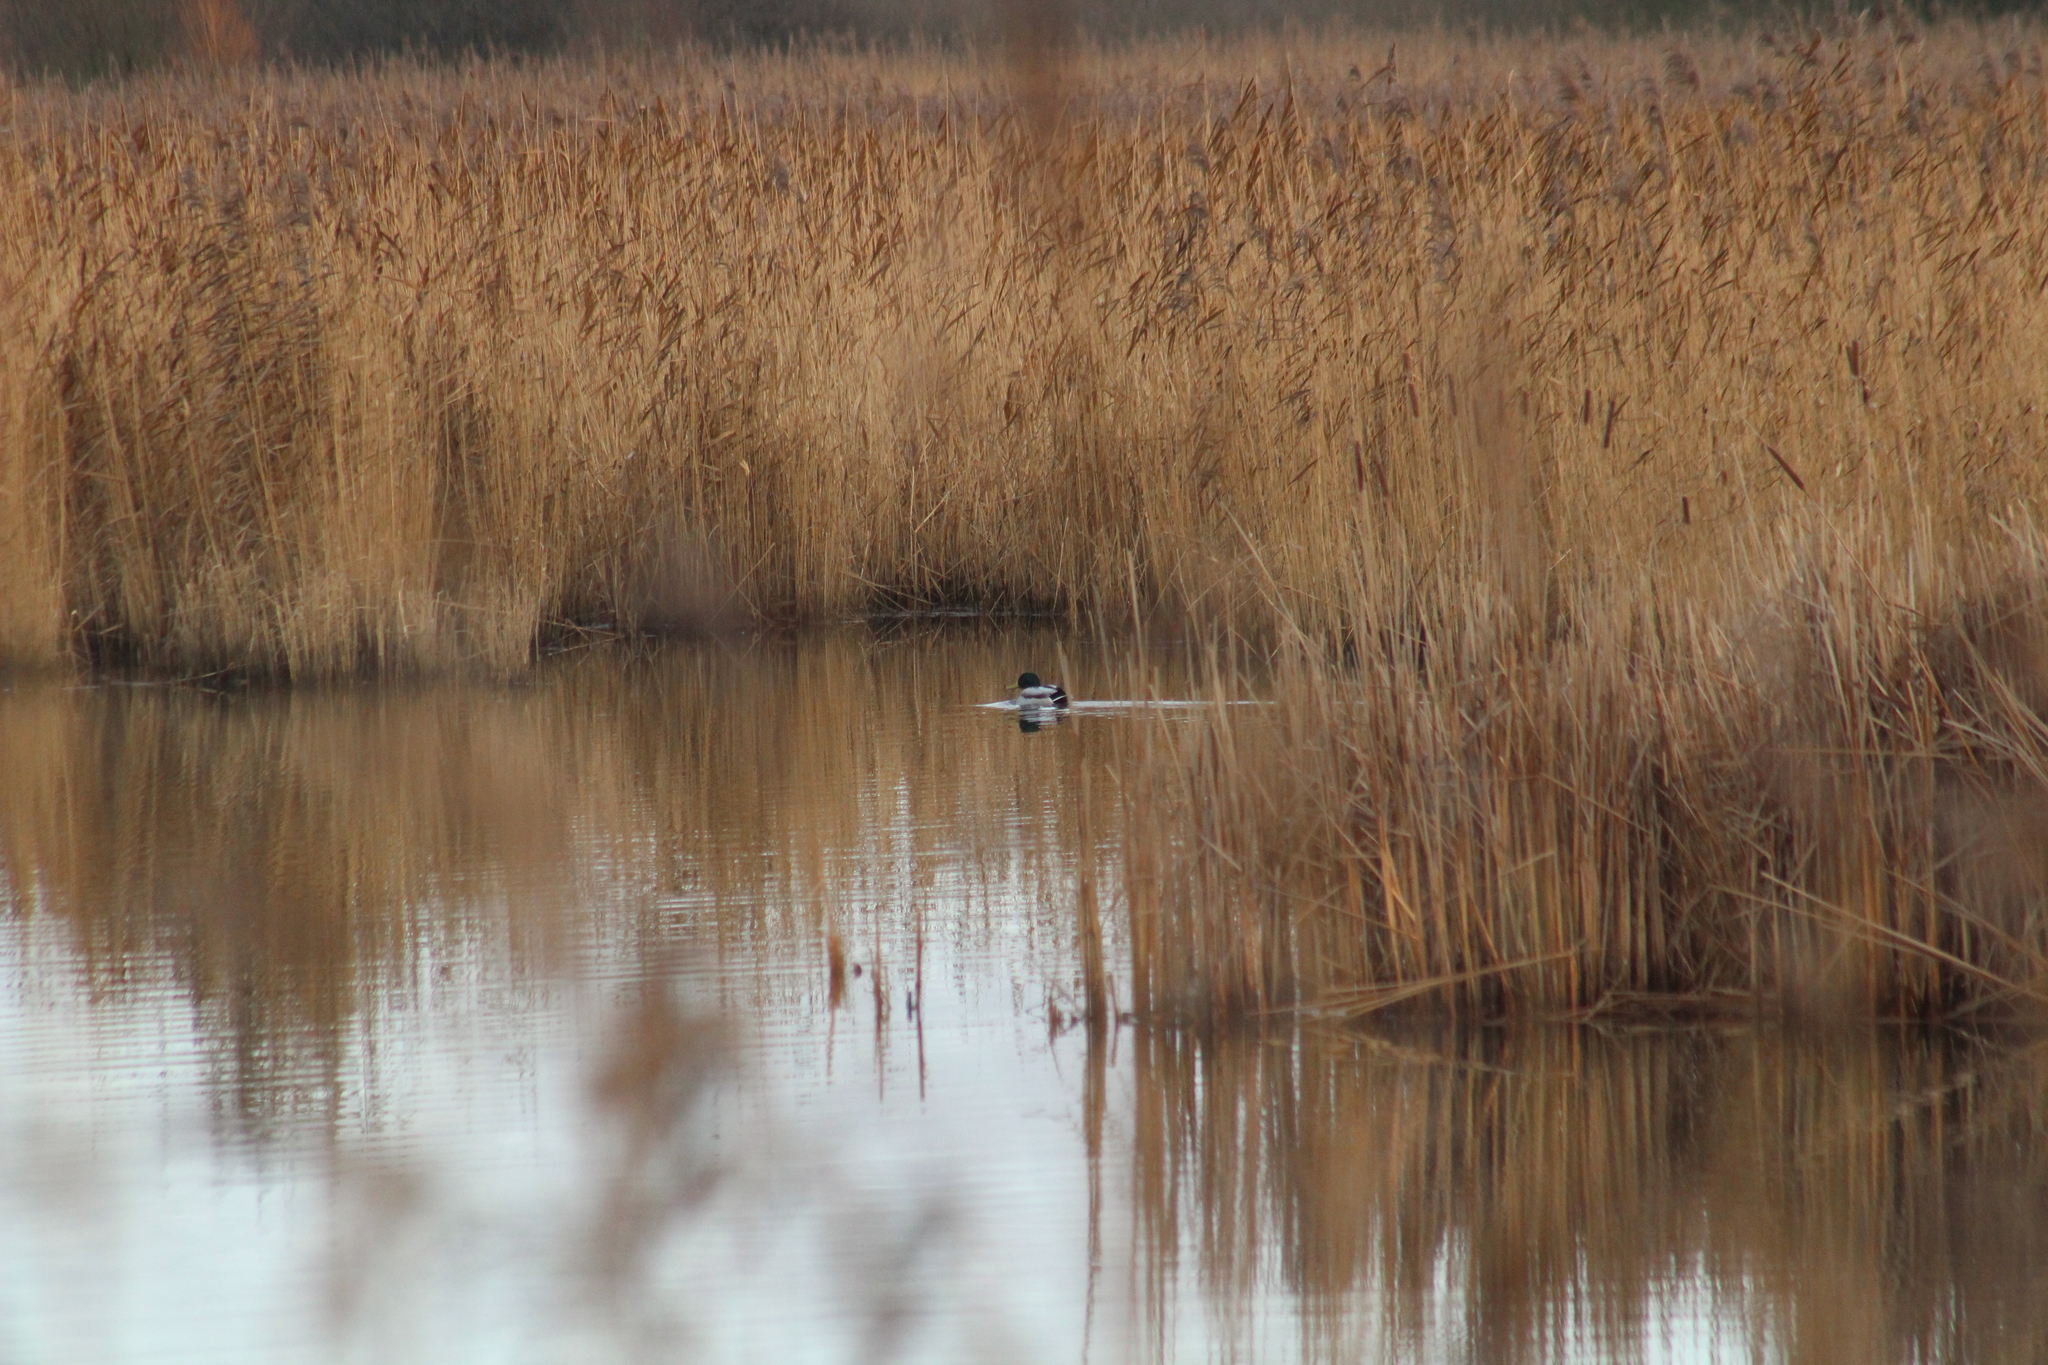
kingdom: Animalia
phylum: Chordata
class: Aves
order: Anseriformes
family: Anatidae
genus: Anas
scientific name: Anas platyrhynchos
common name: Mallard
